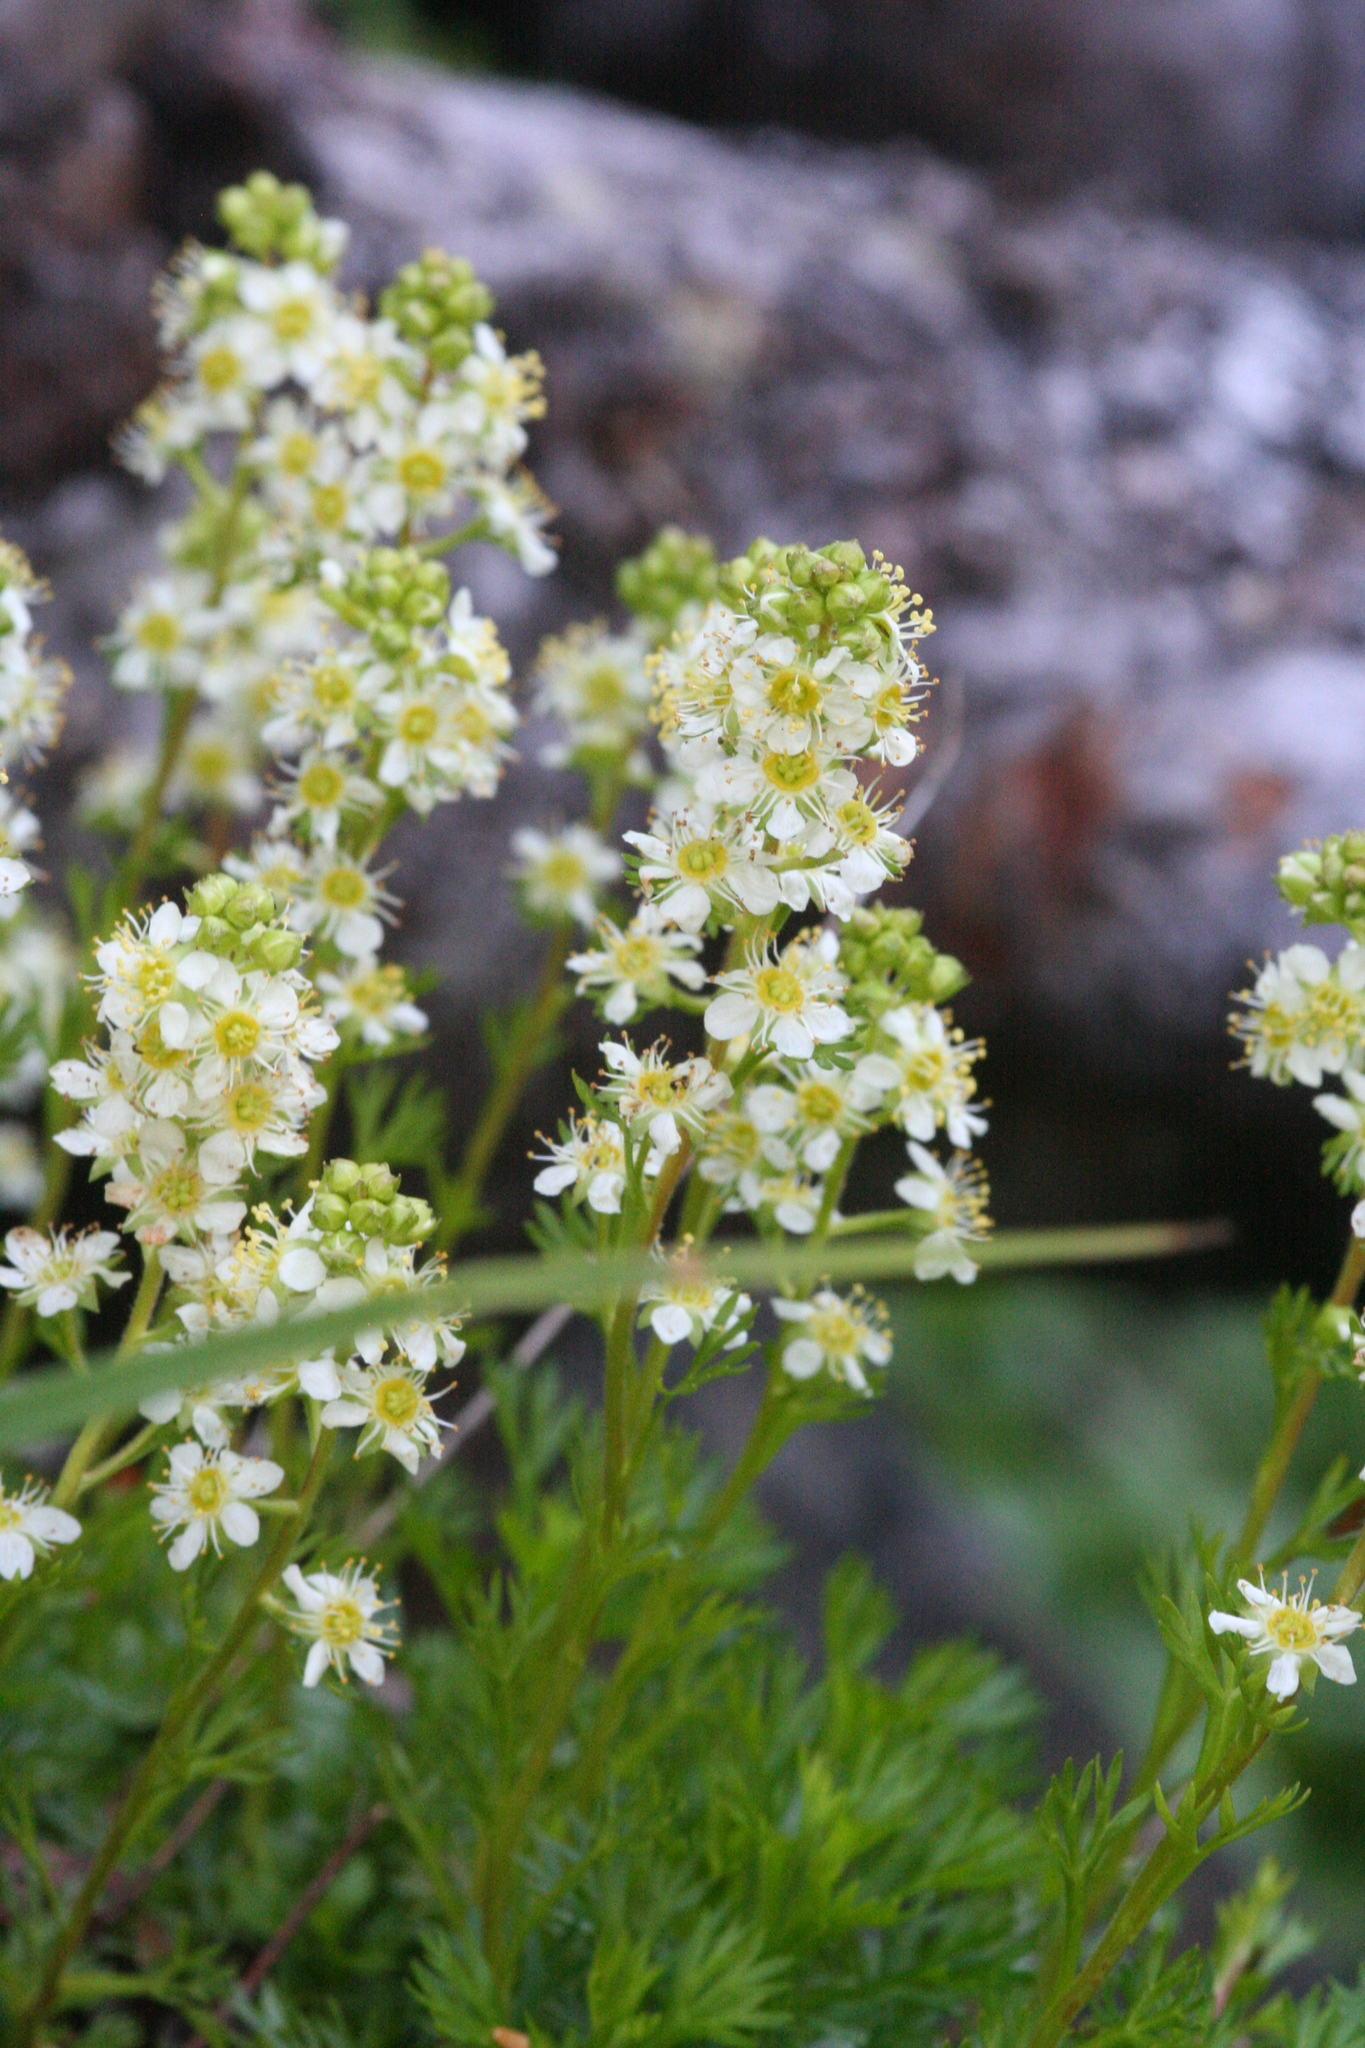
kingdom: Plantae
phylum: Tracheophyta
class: Magnoliopsida
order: Rosales
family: Rosaceae
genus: Luetkea
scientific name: Luetkea pectinata
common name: Partridgefoot
